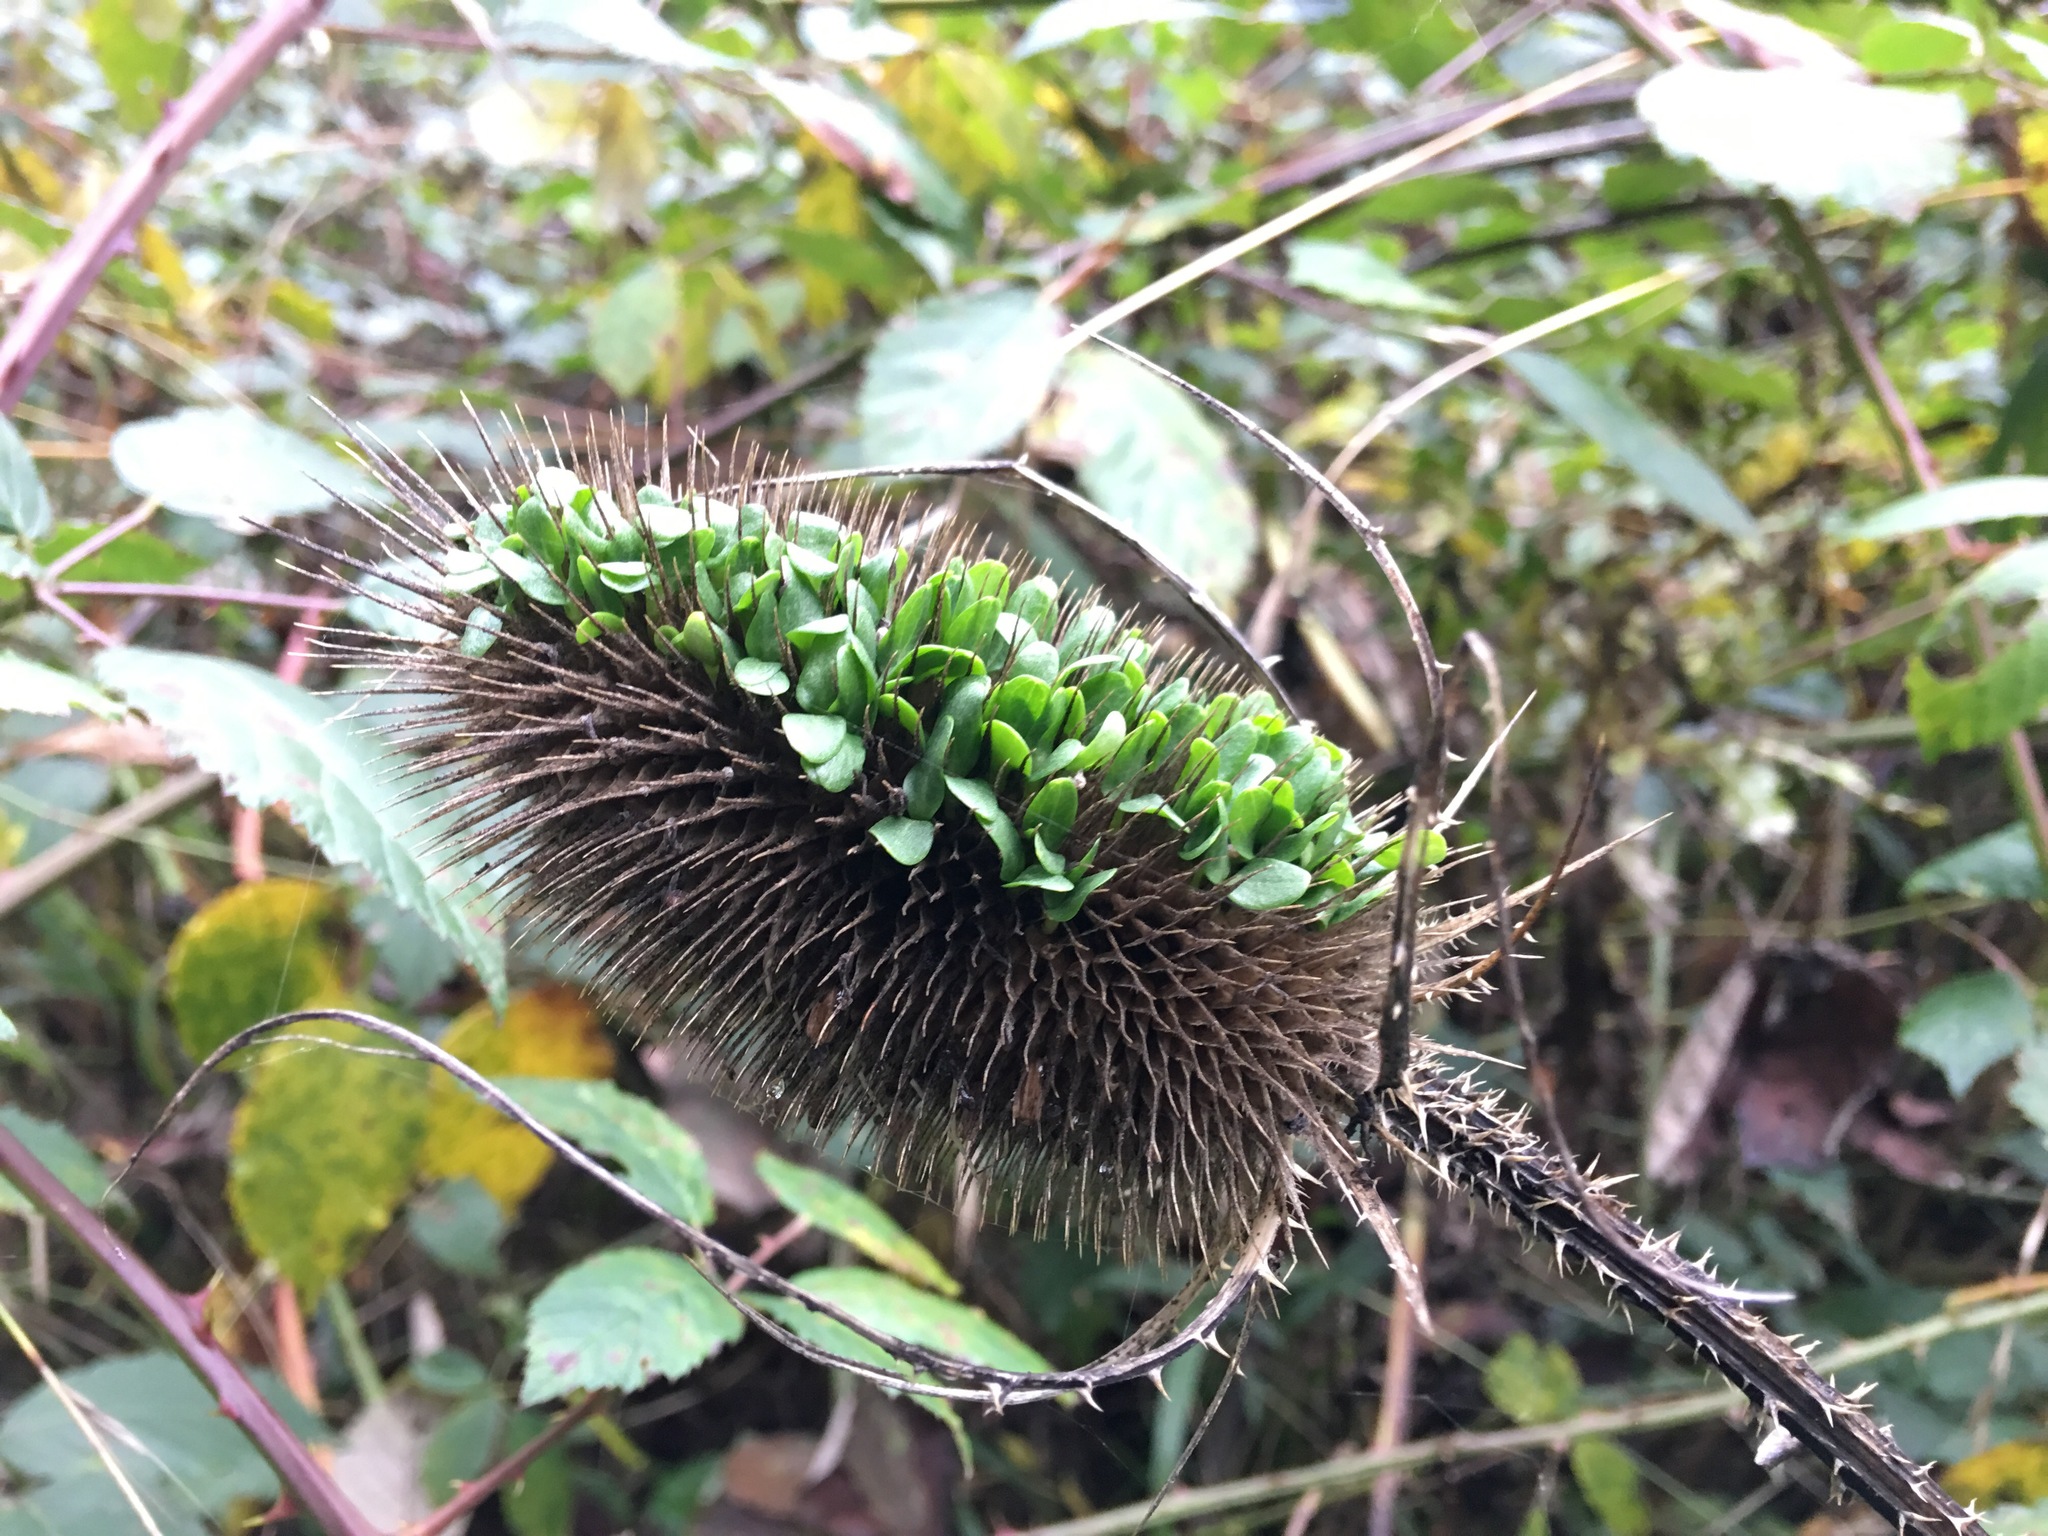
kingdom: Plantae
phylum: Tracheophyta
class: Magnoliopsida
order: Dipsacales
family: Caprifoliaceae
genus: Dipsacus
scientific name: Dipsacus fullonum
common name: Teasel
